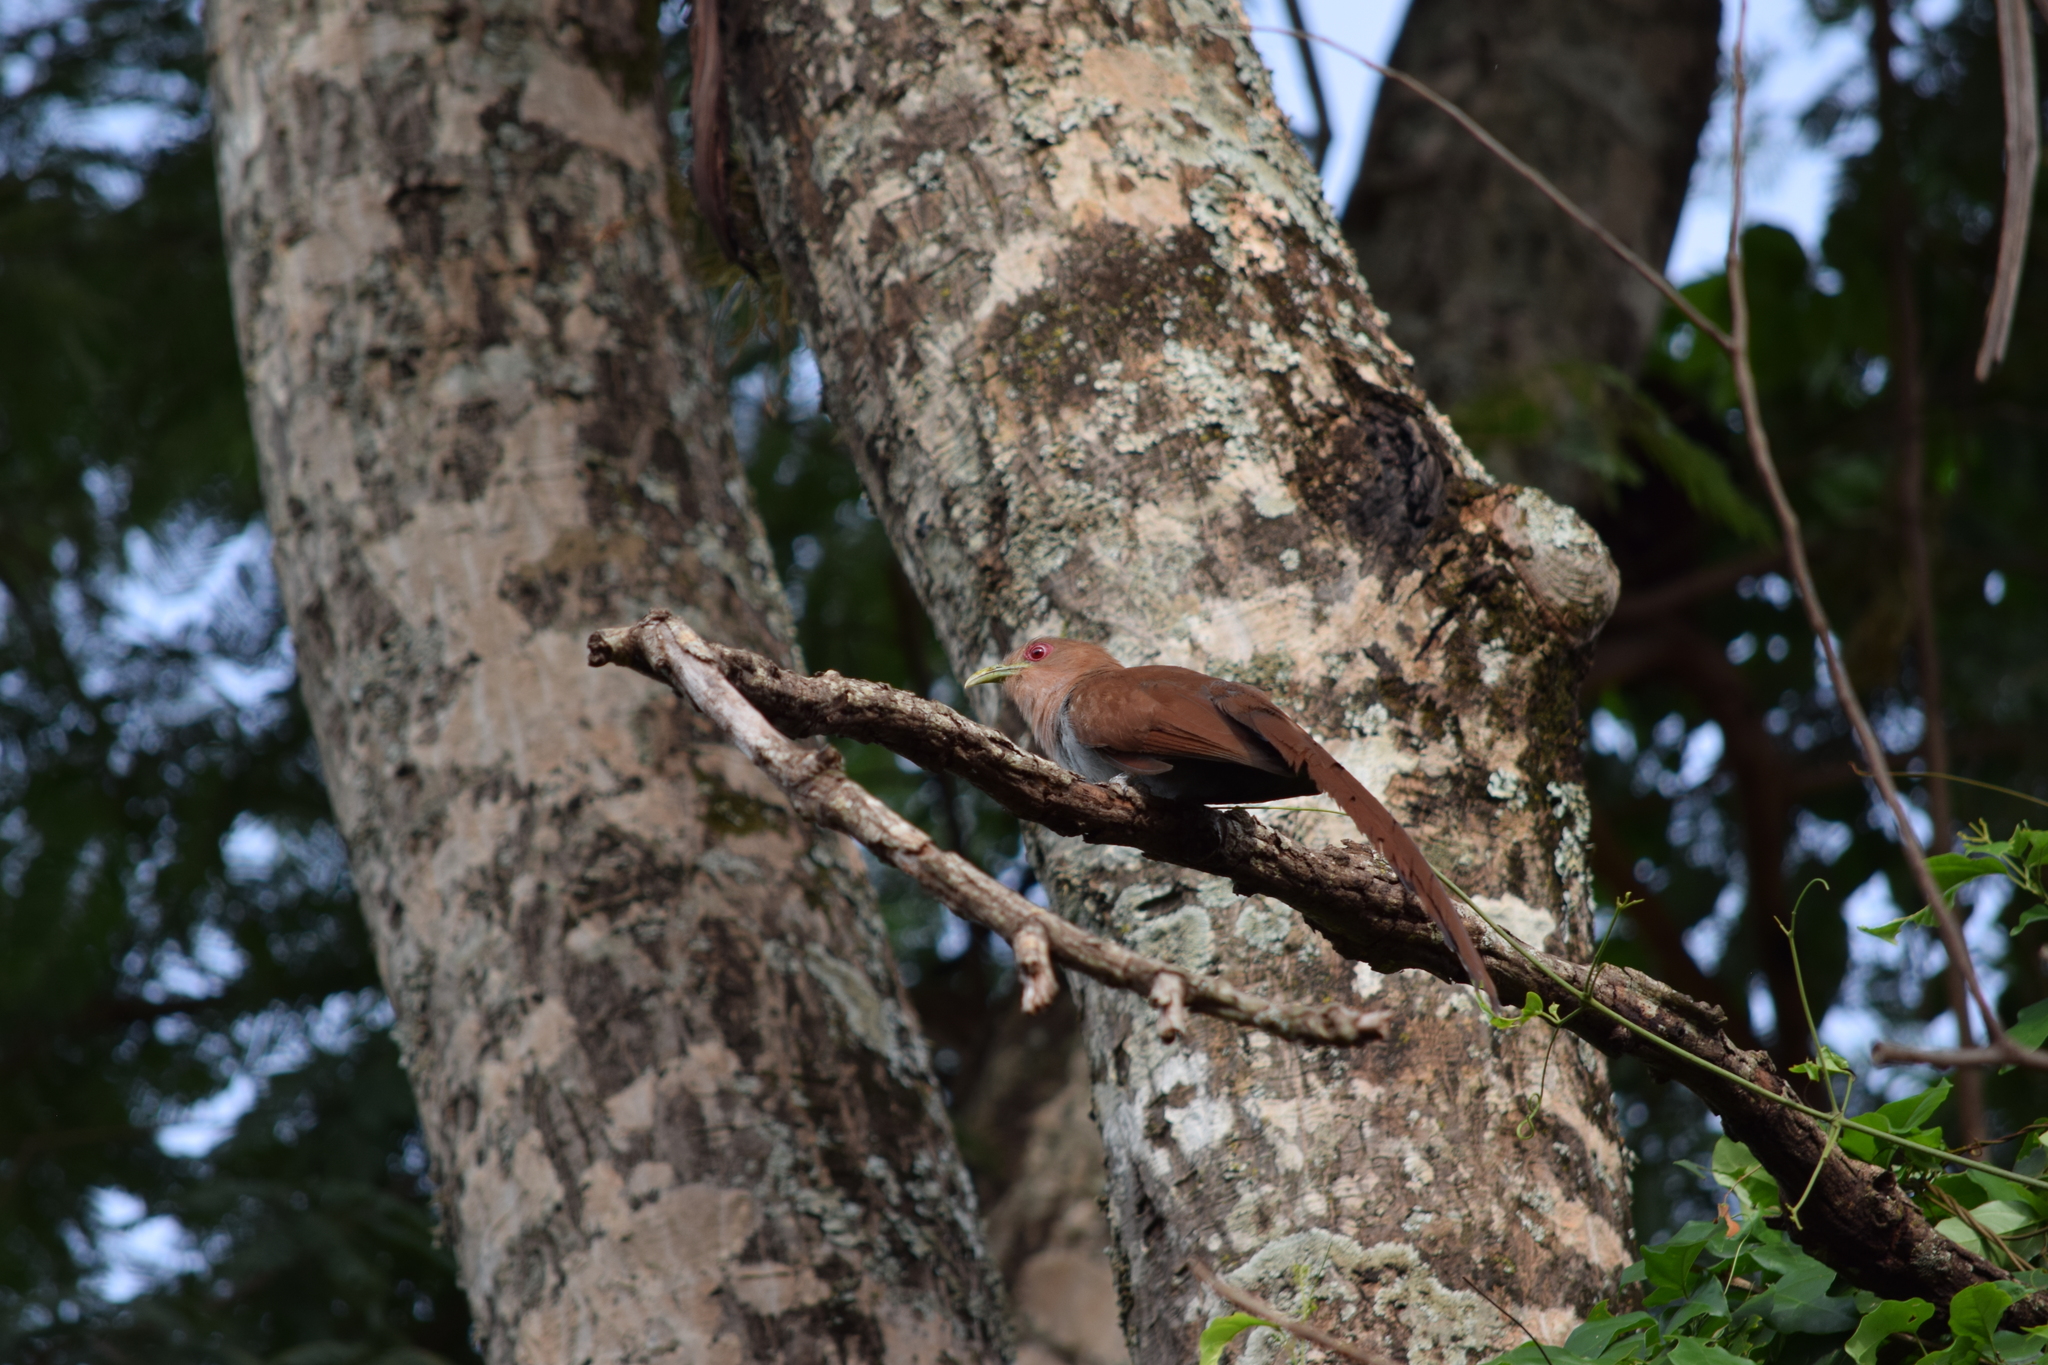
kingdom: Animalia
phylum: Chordata
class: Aves
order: Cuculiformes
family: Cuculidae
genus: Piaya
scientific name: Piaya cayana
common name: Squirrel cuckoo
